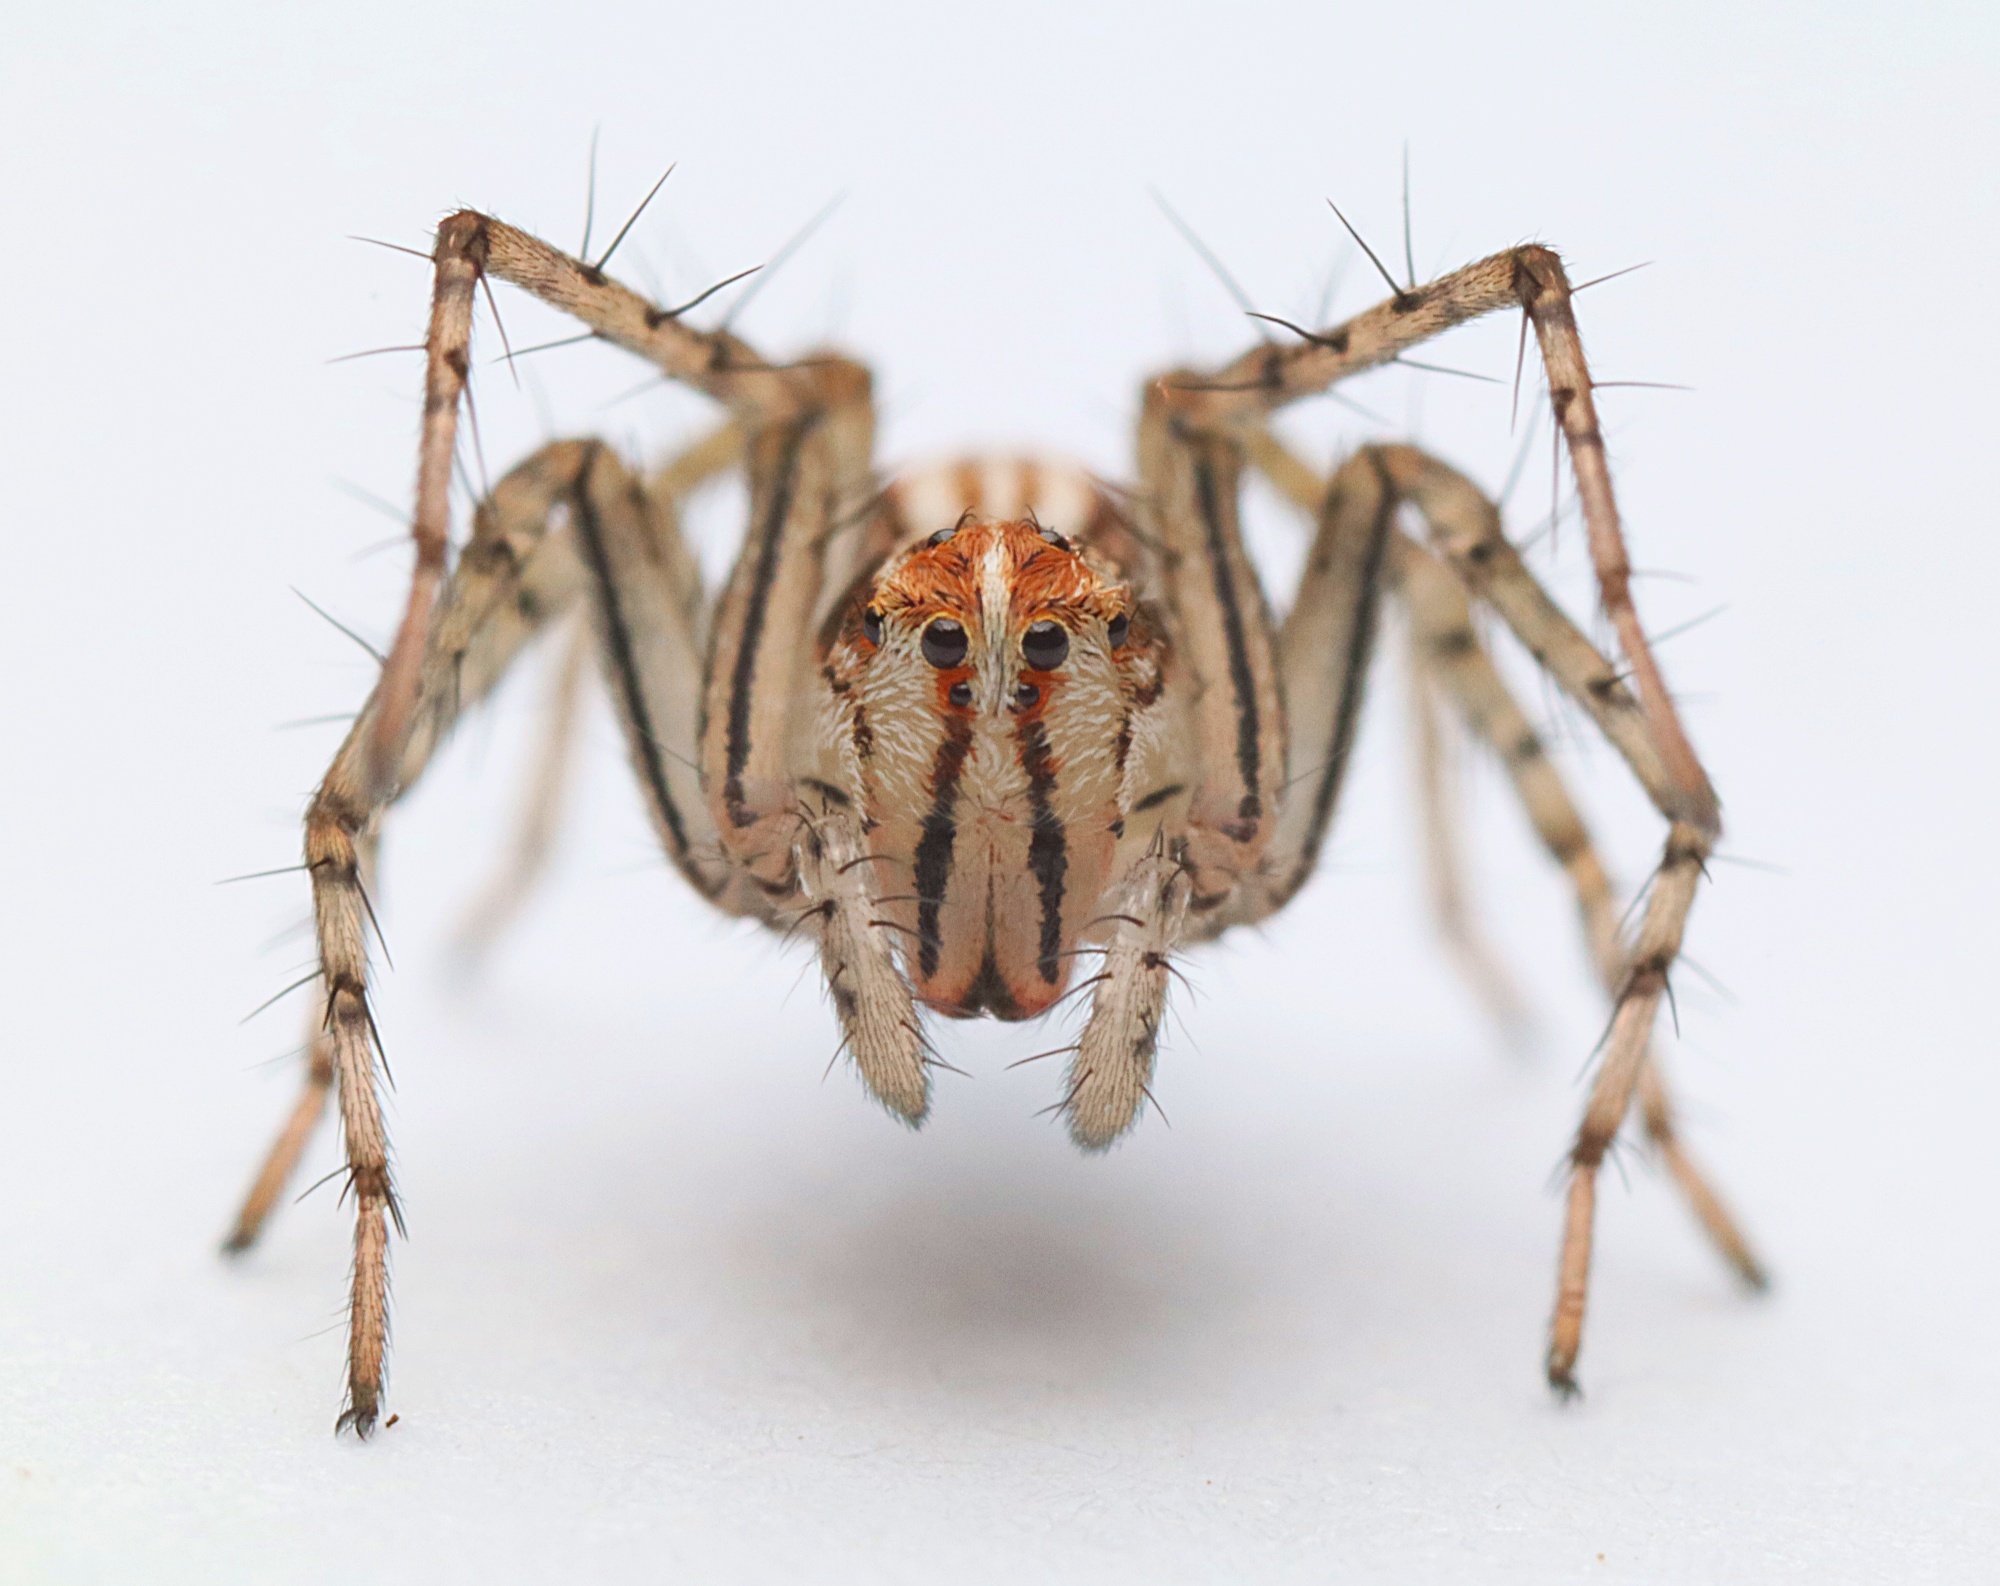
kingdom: Animalia
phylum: Arthropoda
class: Arachnida
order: Araneae
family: Oxyopidae
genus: Oxyopes
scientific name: Oxyopes gracilipes
